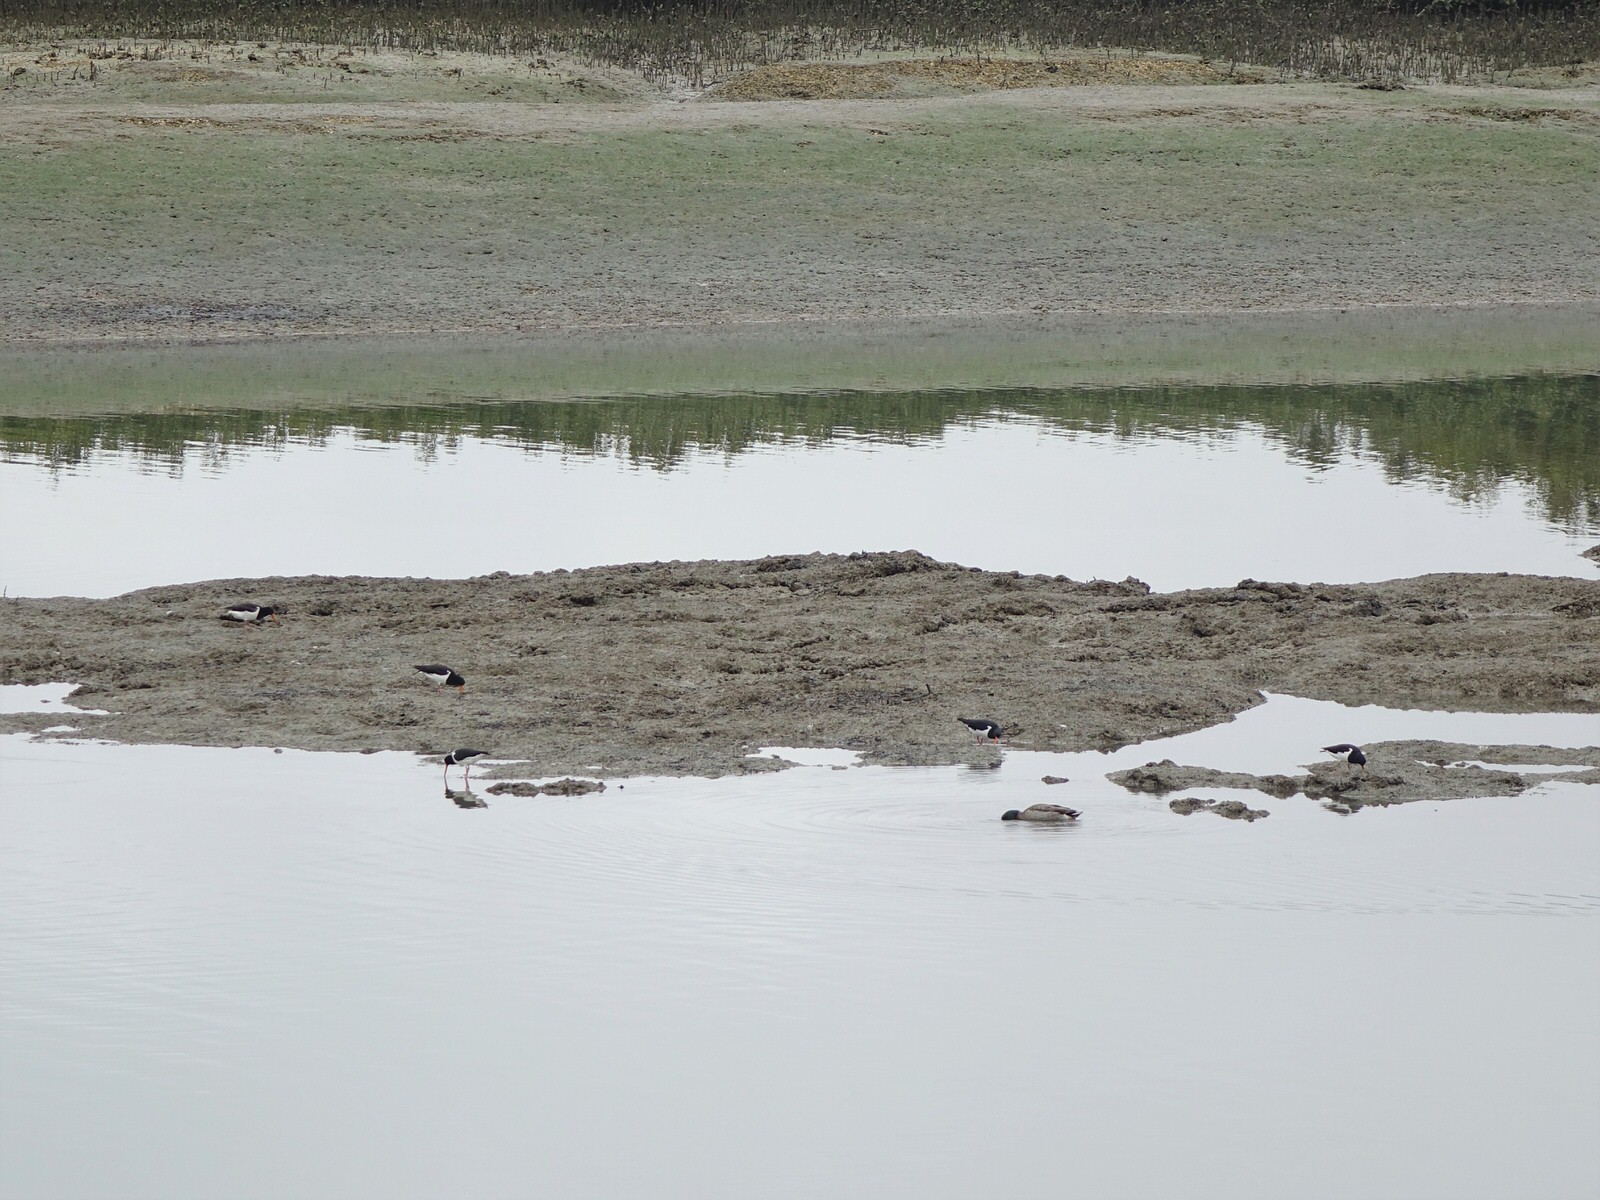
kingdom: Animalia
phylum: Chordata
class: Aves
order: Charadriiformes
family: Haematopodidae
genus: Haematopus
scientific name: Haematopus finschi
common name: South island oystercatcher
